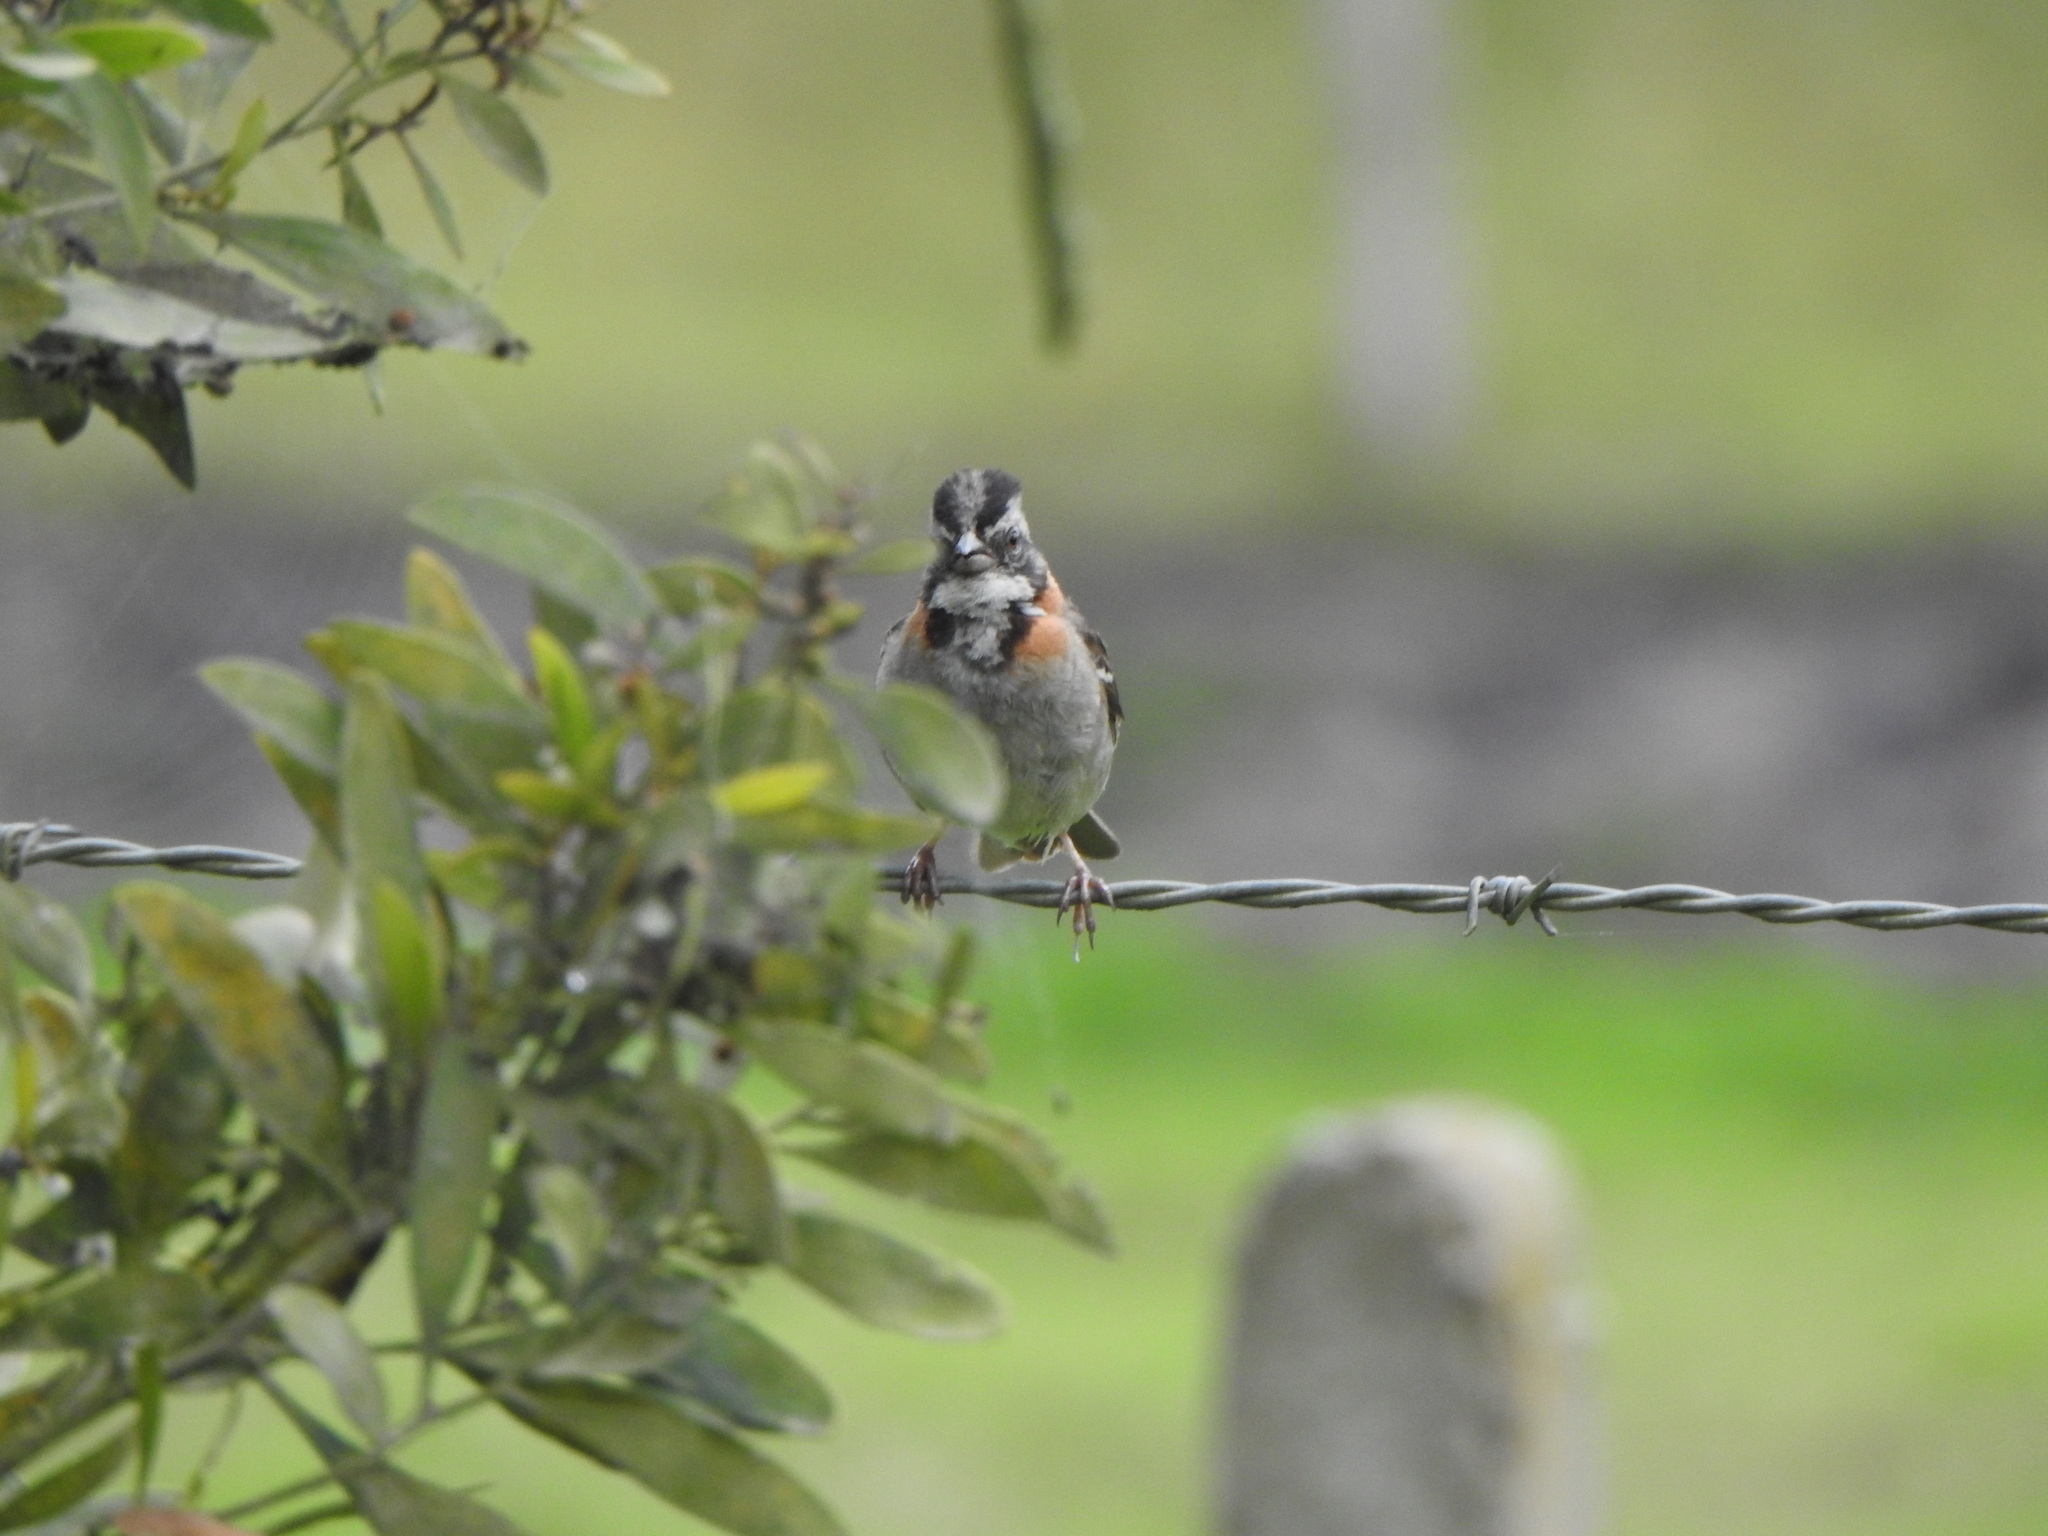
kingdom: Animalia
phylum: Chordata
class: Aves
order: Passeriformes
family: Passerellidae
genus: Zonotrichia
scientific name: Zonotrichia capensis
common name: Rufous-collared sparrow
